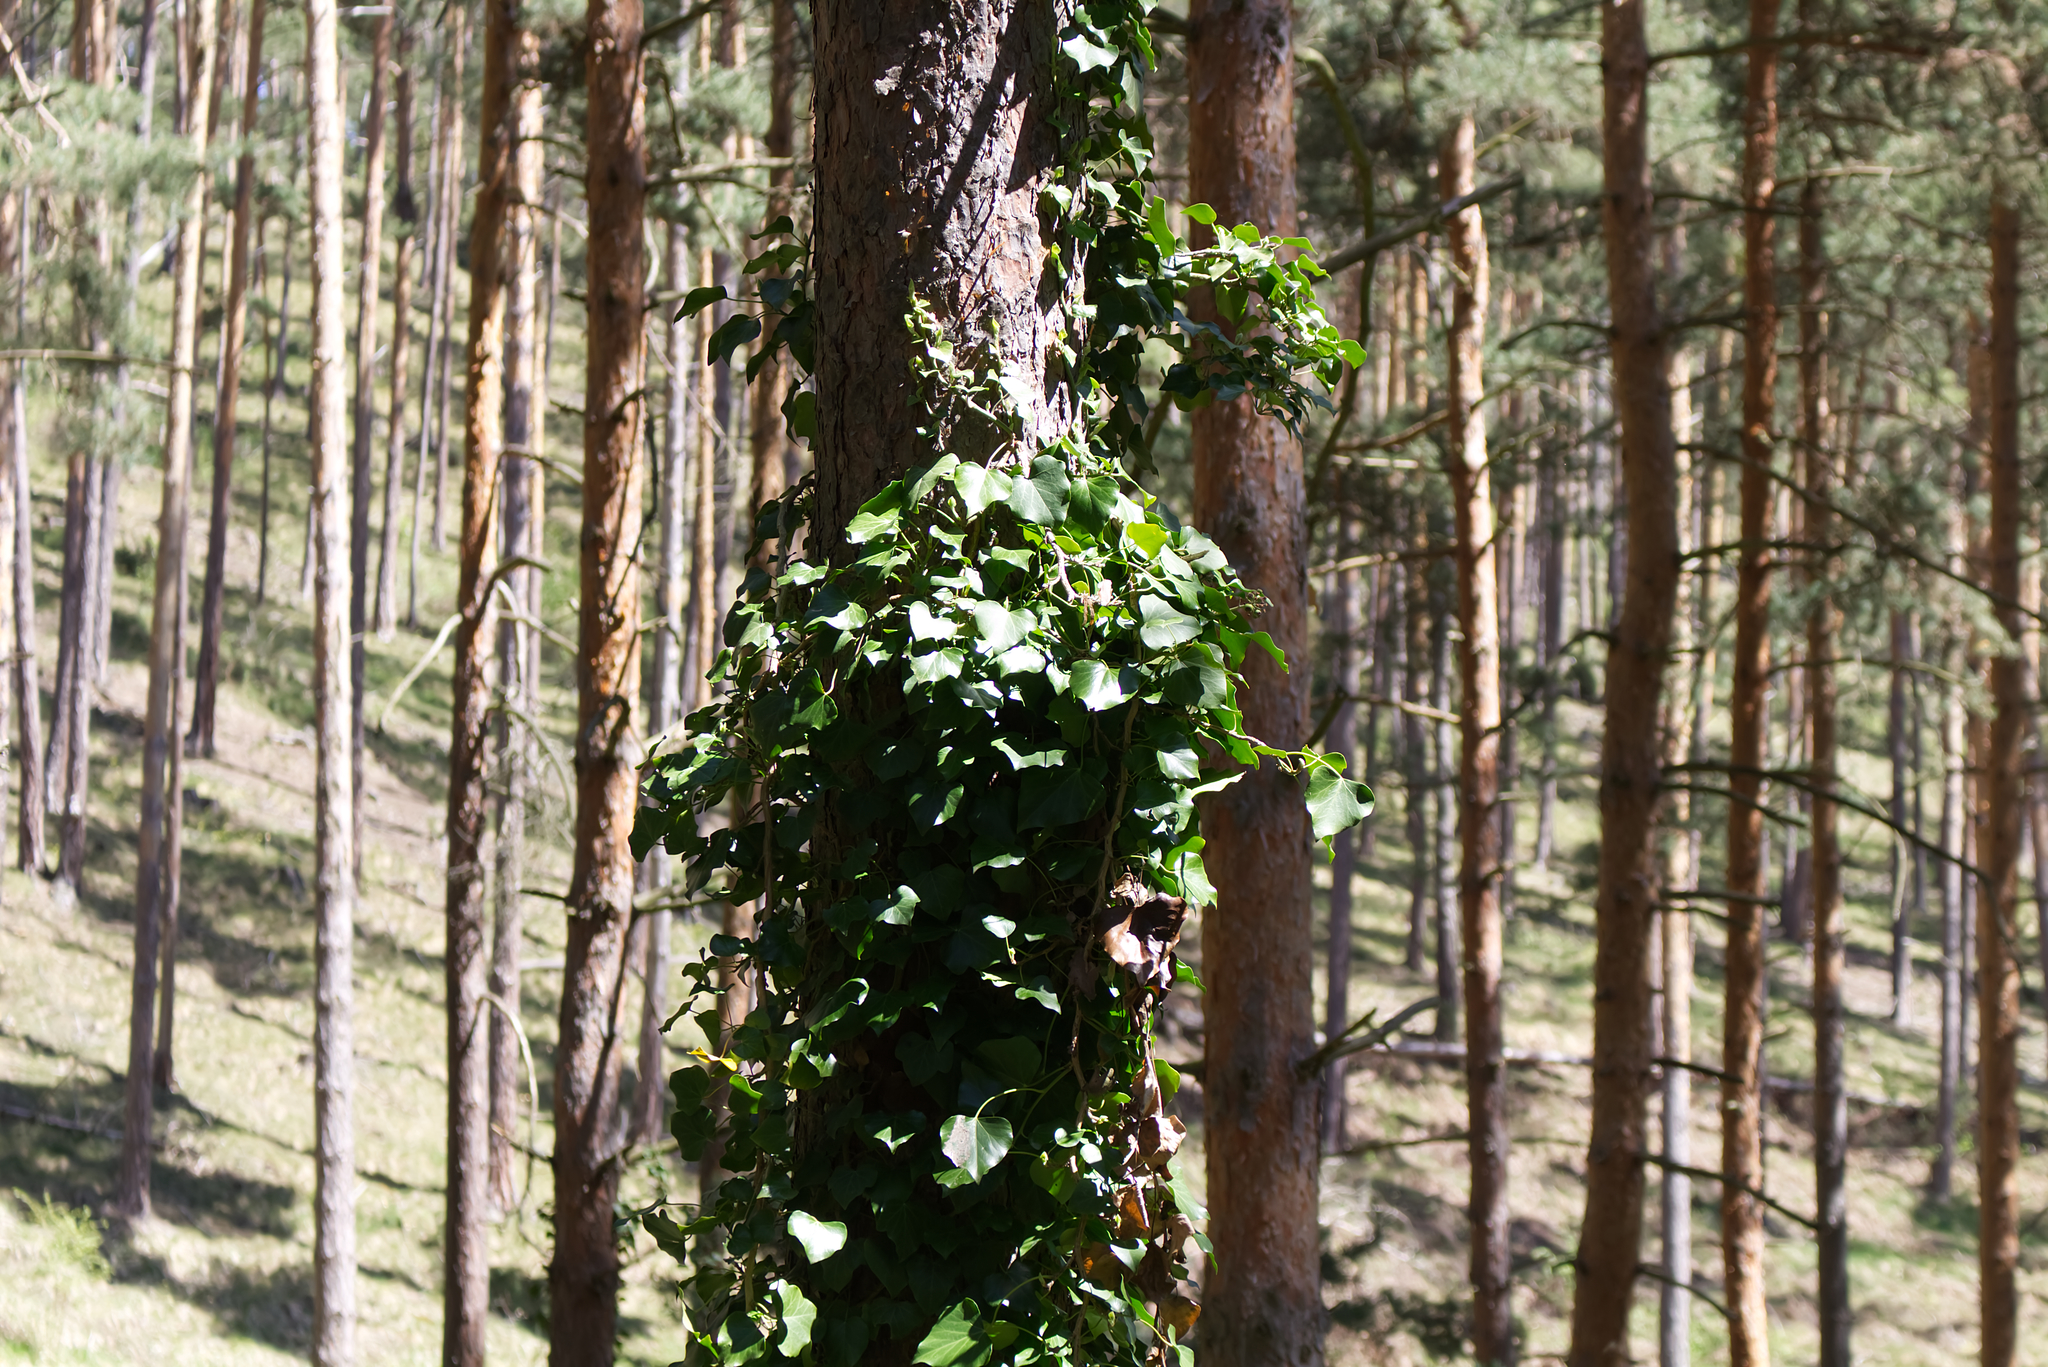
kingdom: Plantae
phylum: Tracheophyta
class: Magnoliopsida
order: Apiales
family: Araliaceae
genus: Hedera
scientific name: Hedera helix
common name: Ivy
